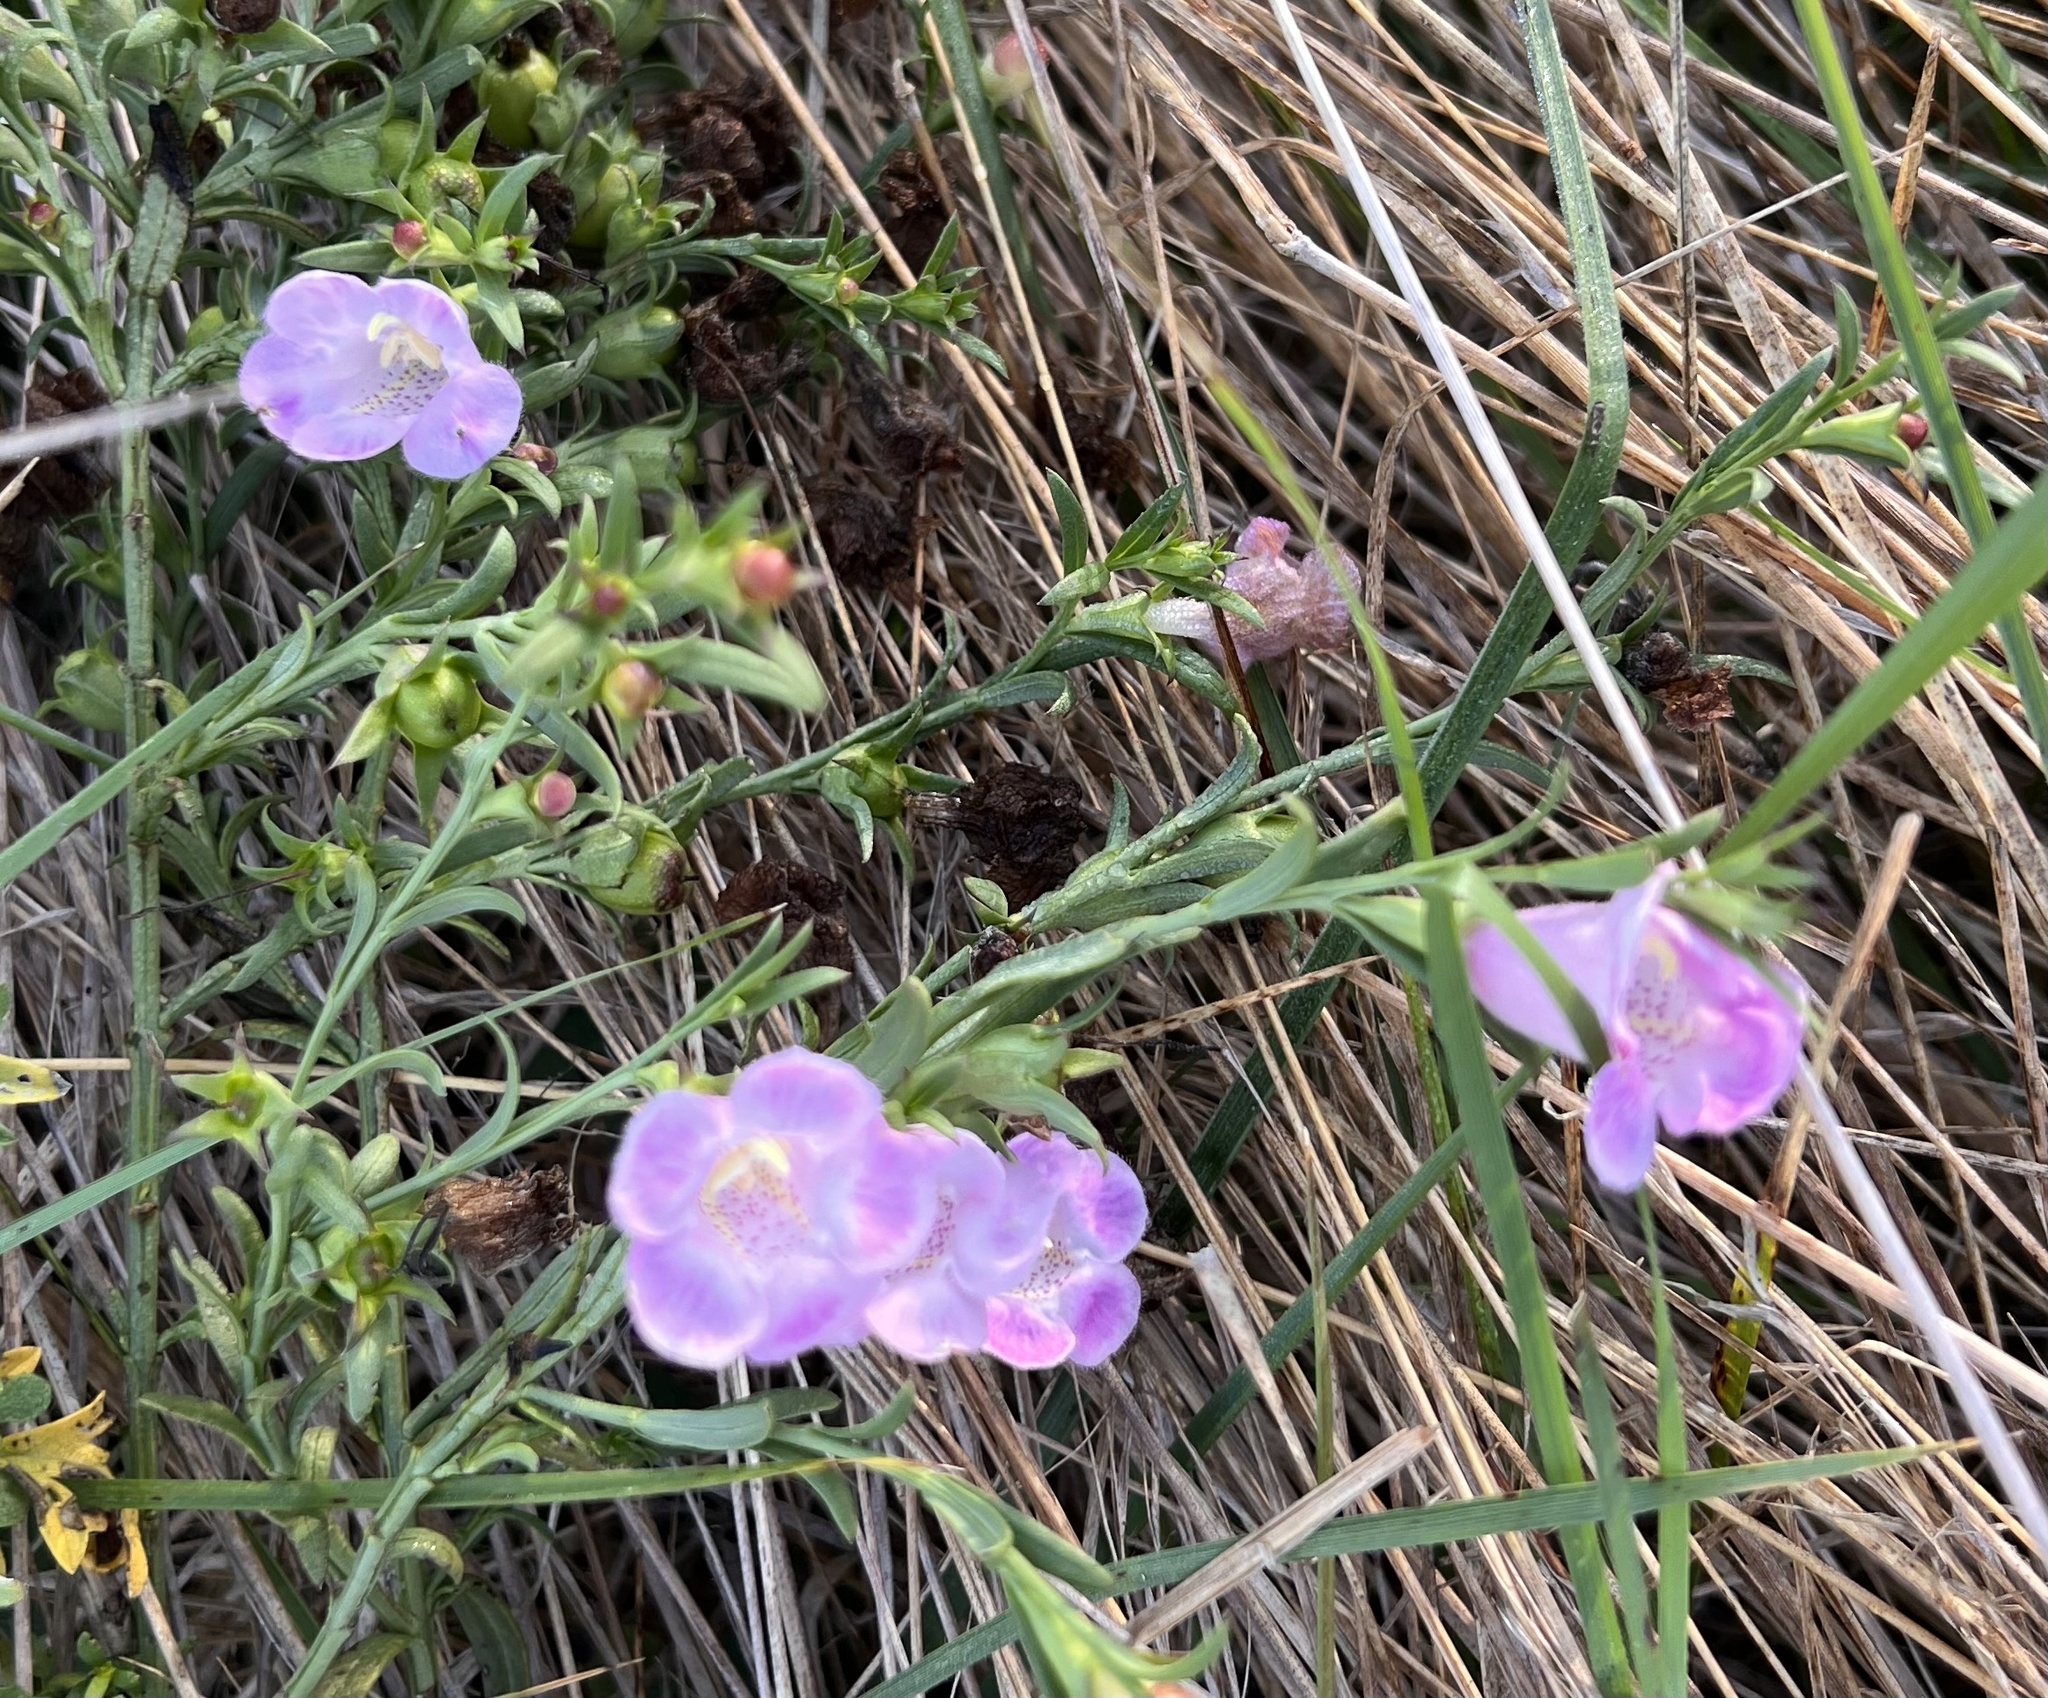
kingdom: Plantae
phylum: Tracheophyta
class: Magnoliopsida
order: Lamiales
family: Orobanchaceae
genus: Agalinis
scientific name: Agalinis heterophylla
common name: Prairie agalinis
